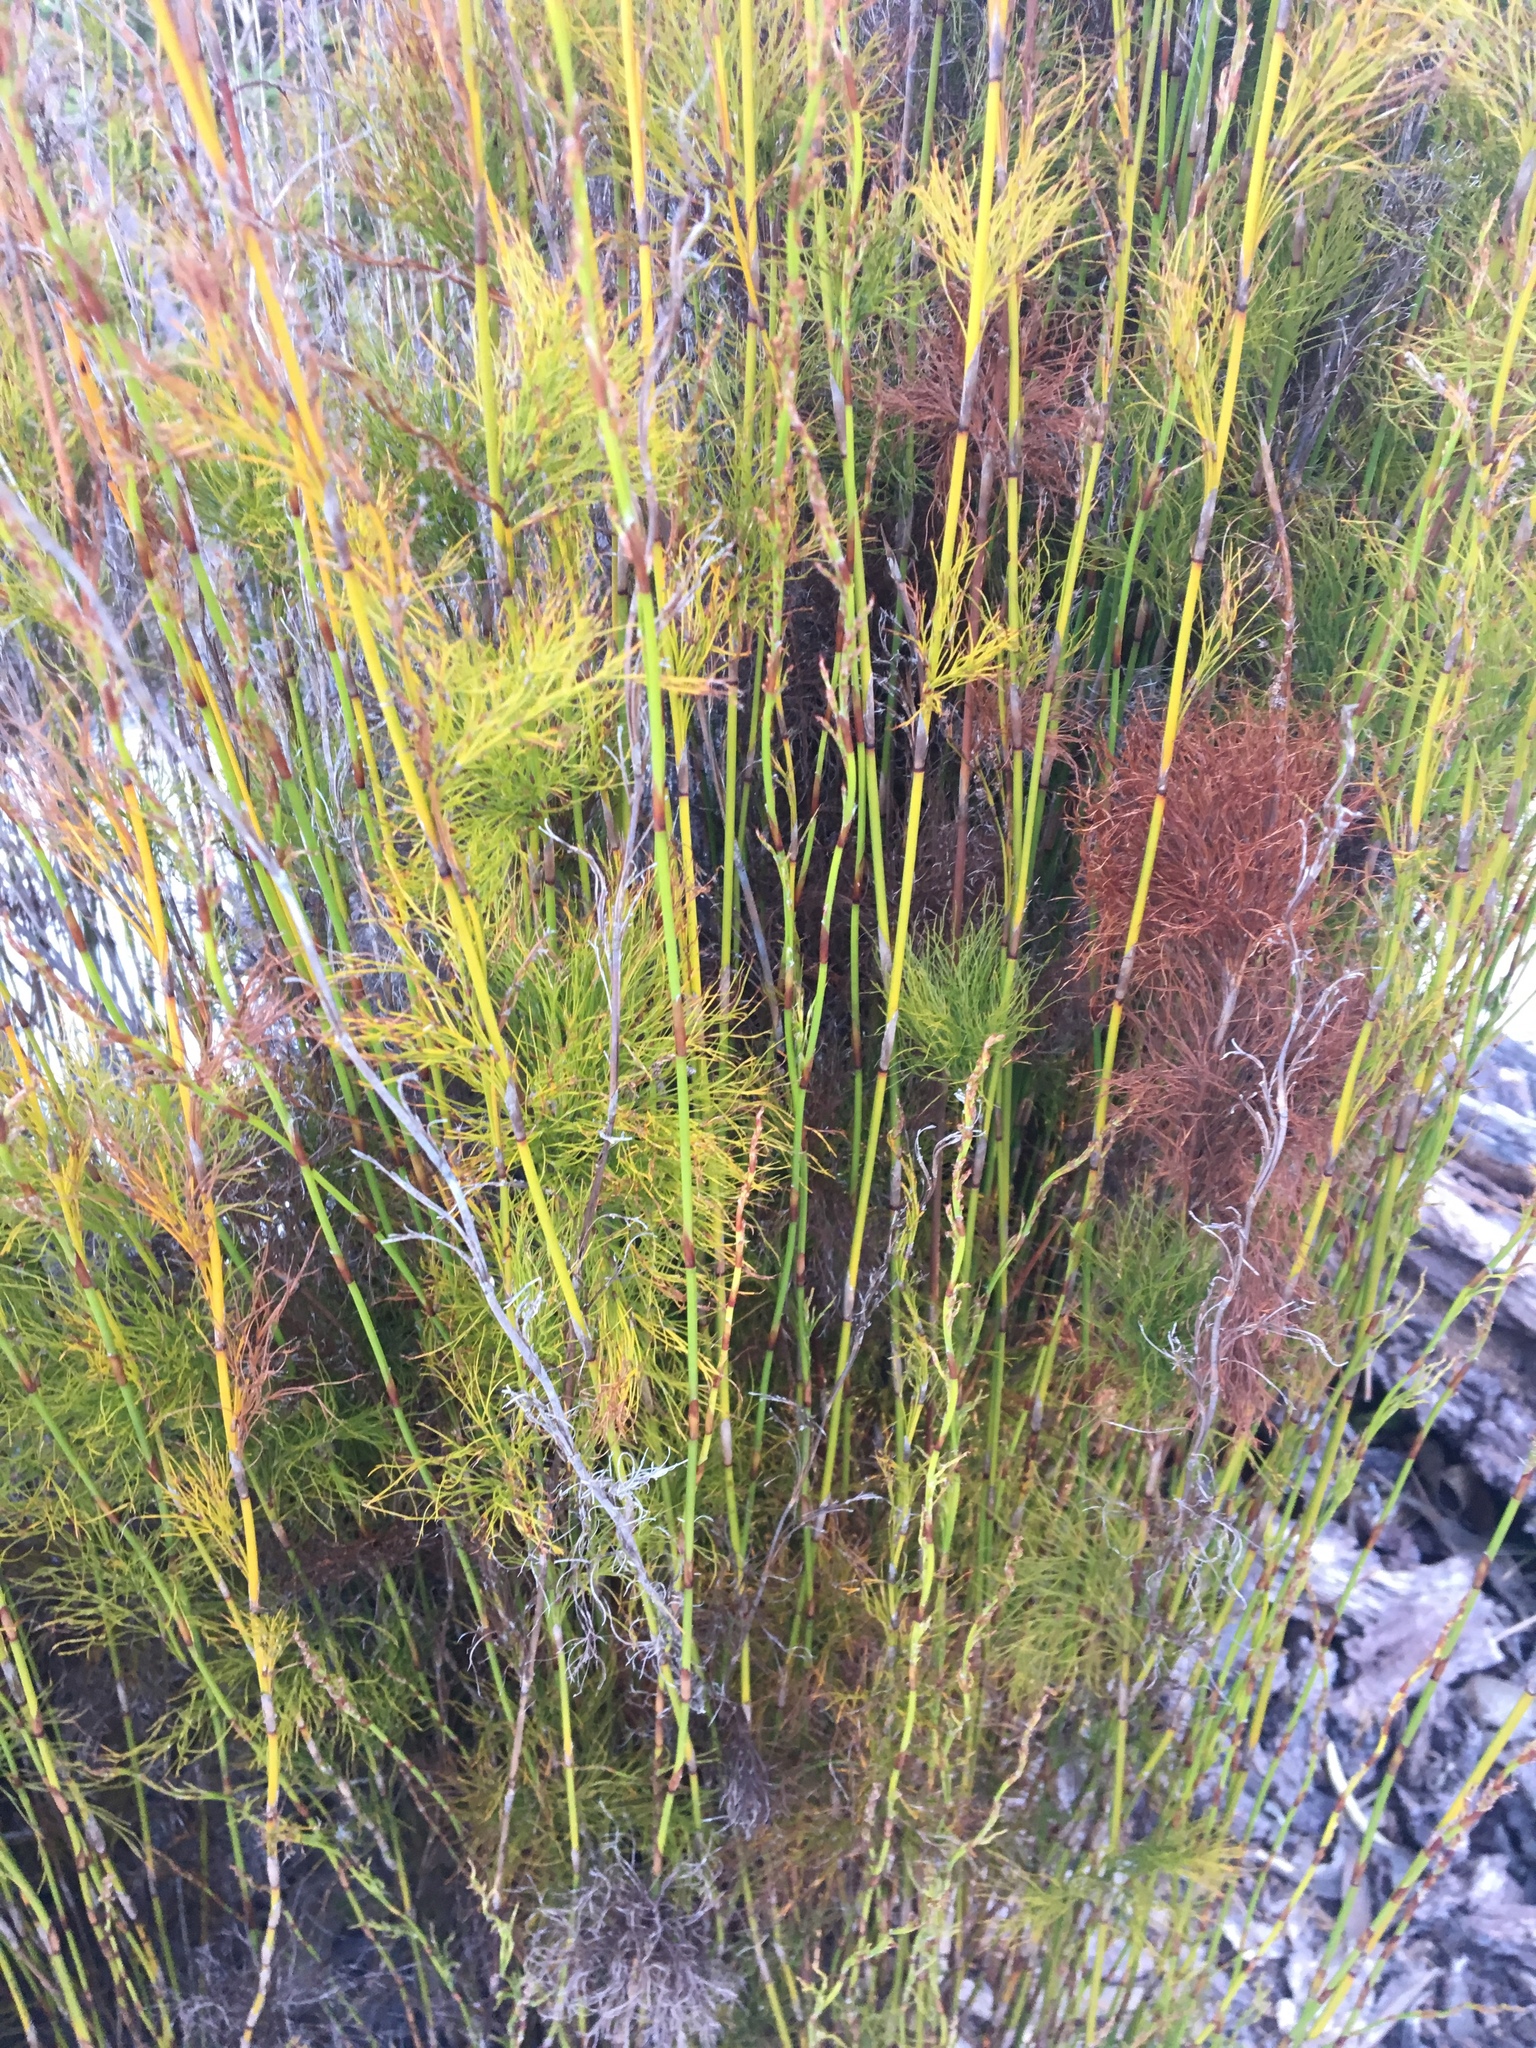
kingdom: Plantae
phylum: Tracheophyta
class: Liliopsida
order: Poales
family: Restionaceae
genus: Baloskion
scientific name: Baloskion tetraphyllum
